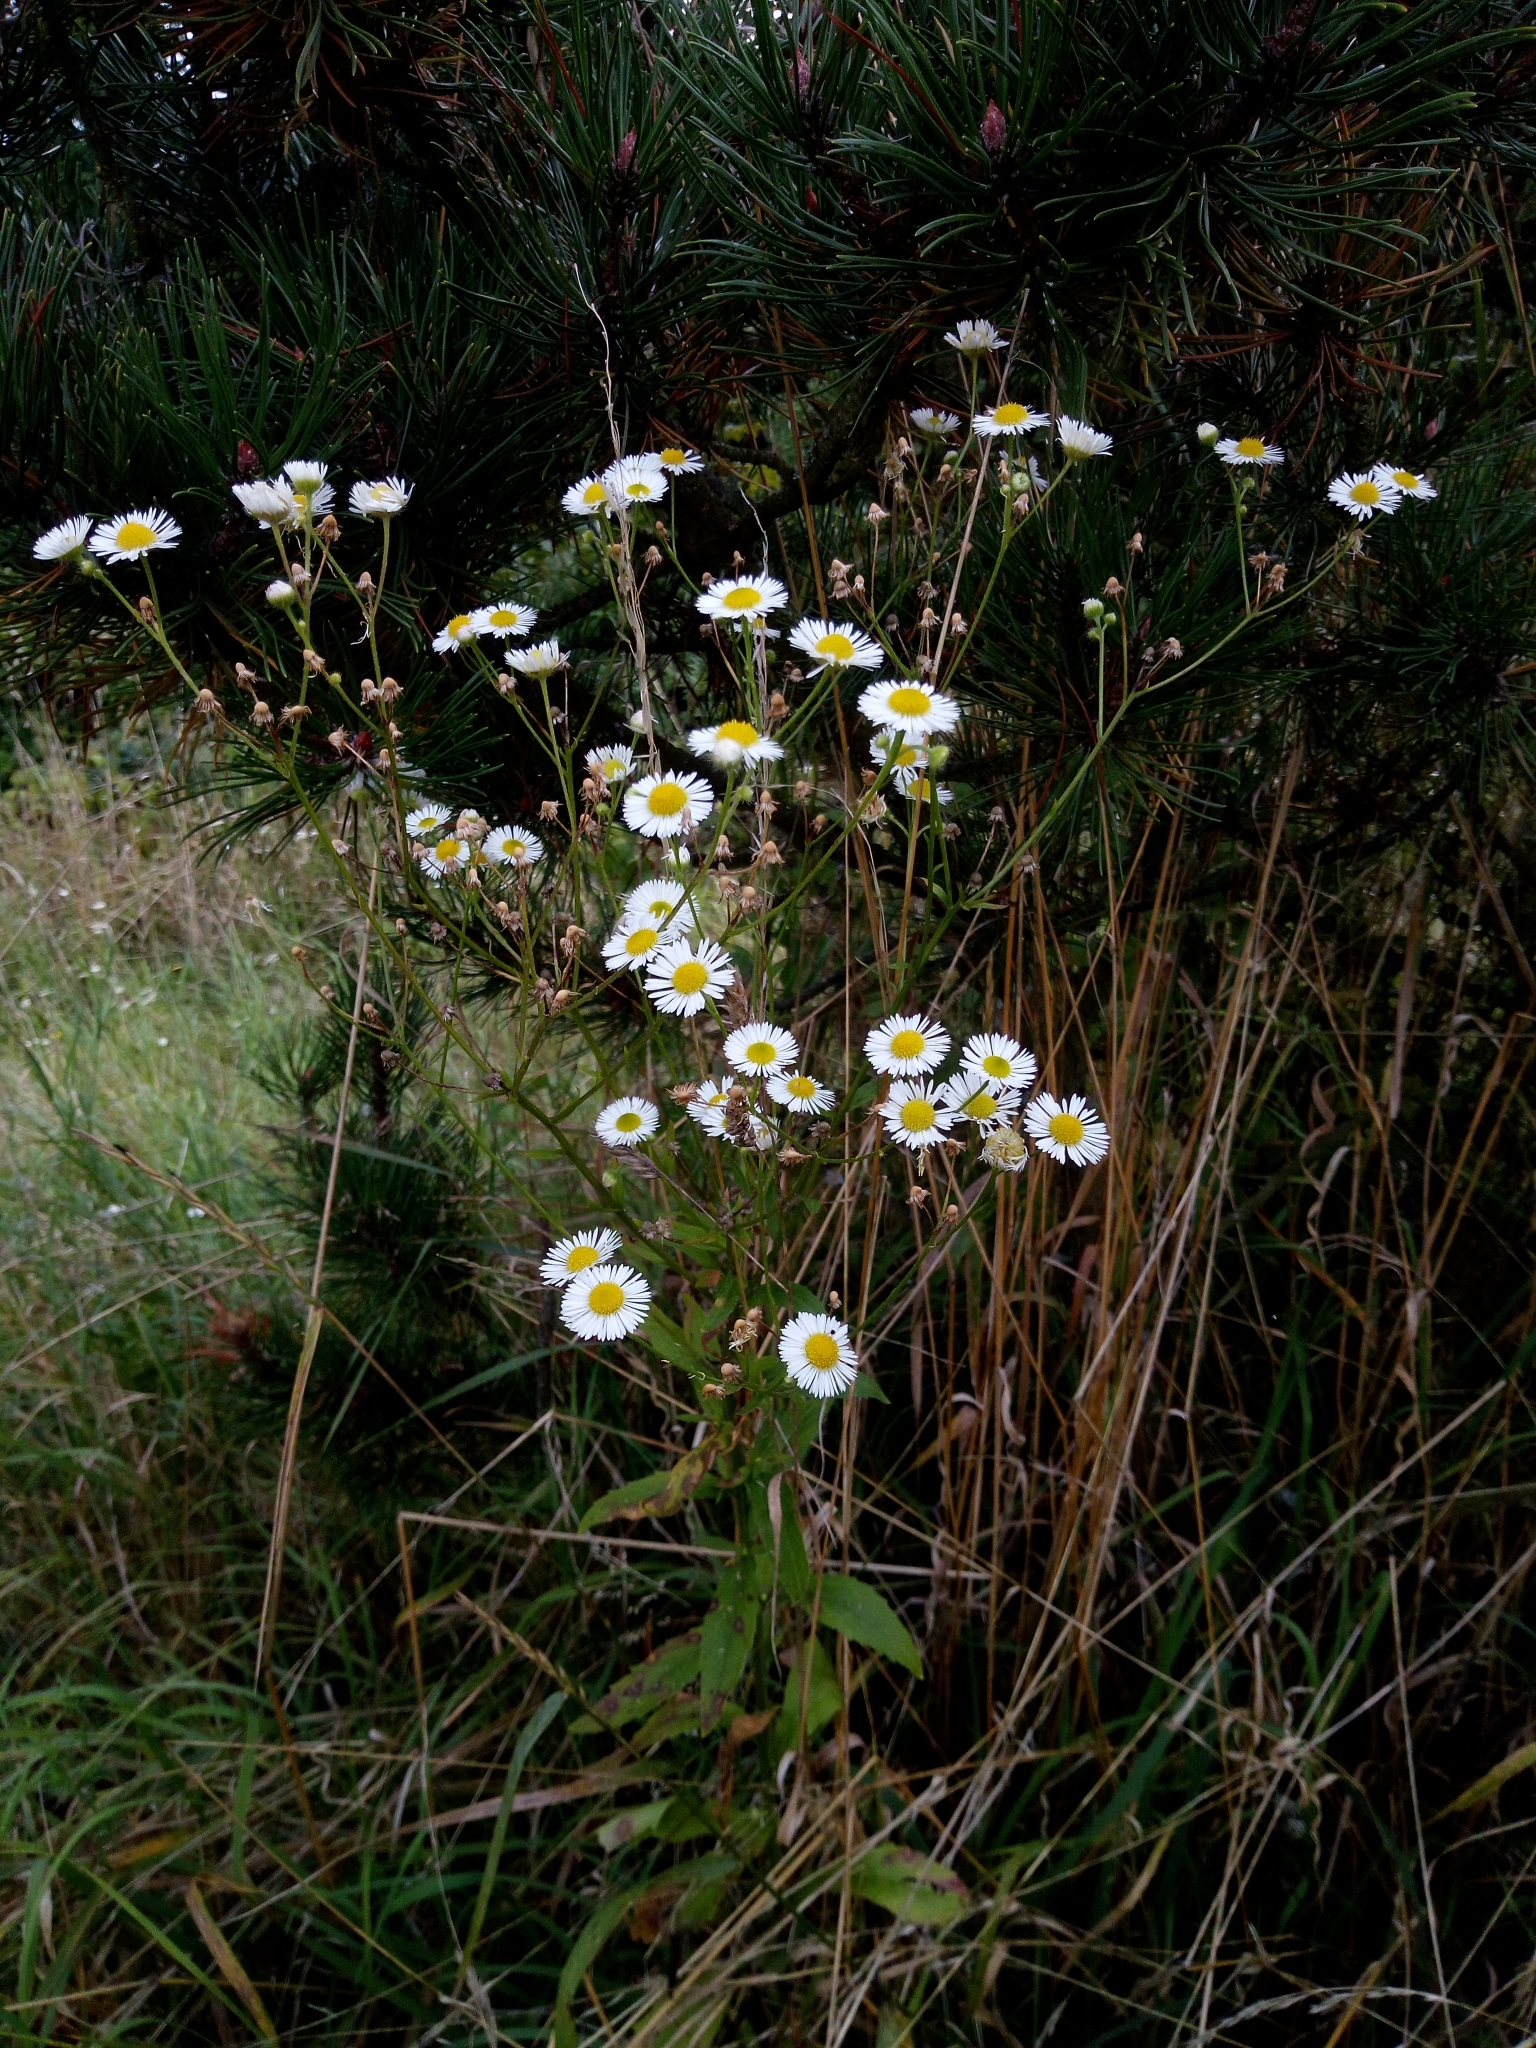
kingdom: Plantae
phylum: Tracheophyta
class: Magnoliopsida
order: Asterales
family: Asteraceae
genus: Erigeron
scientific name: Erigeron annuus
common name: Tall fleabane
